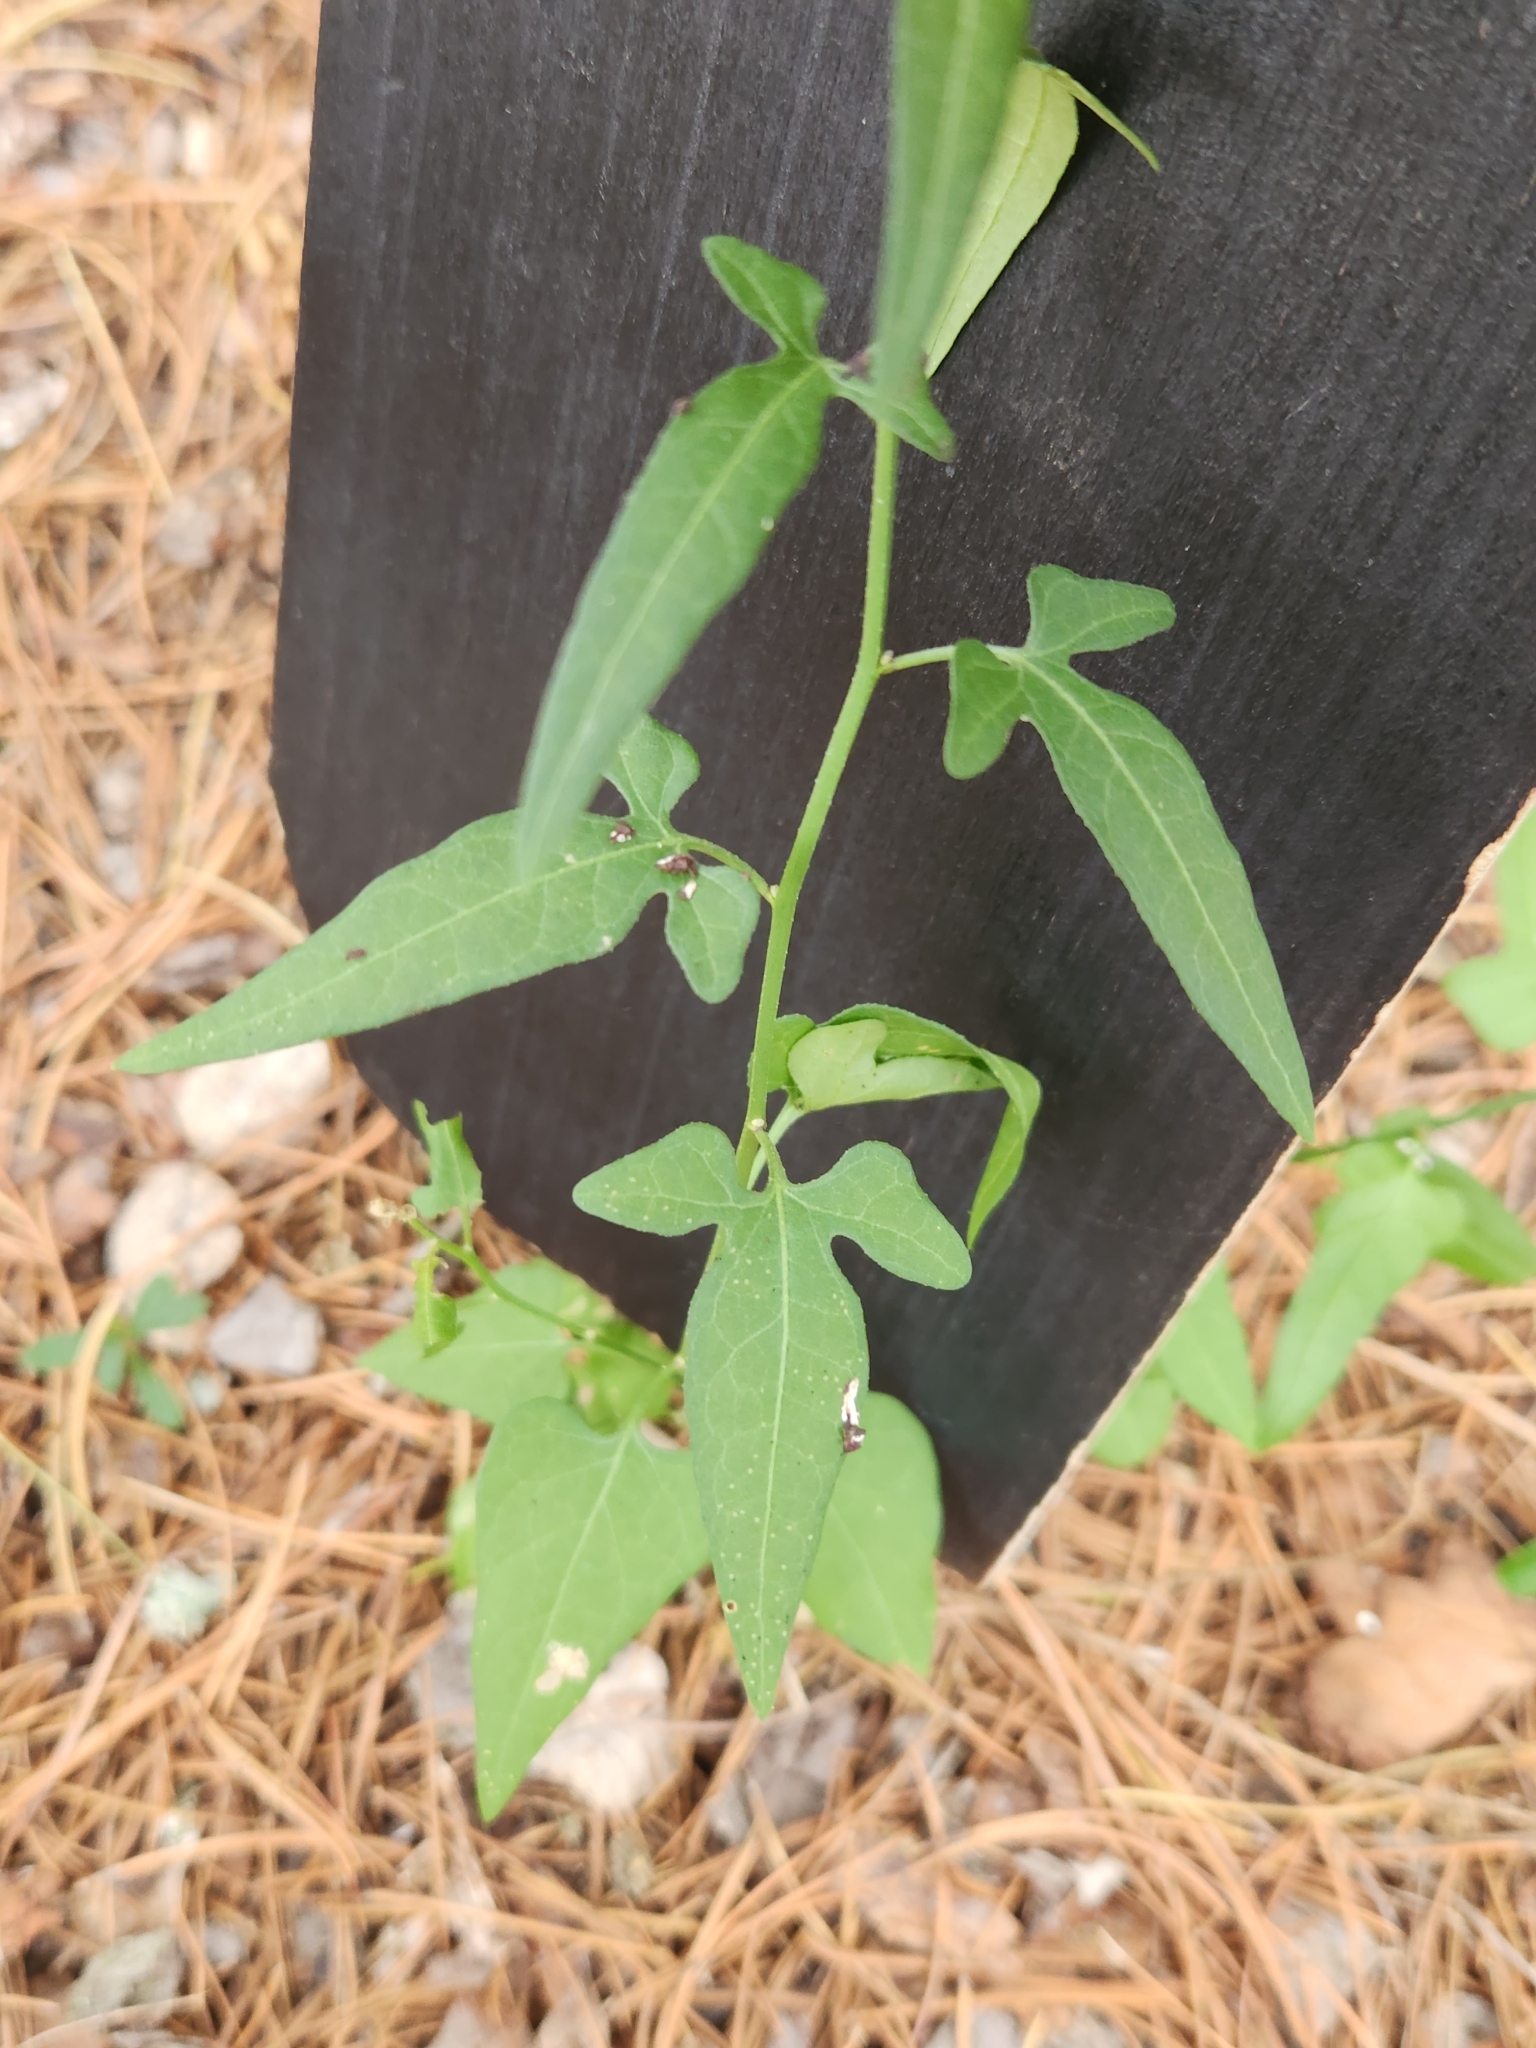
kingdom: Plantae
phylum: Tracheophyta
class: Magnoliopsida
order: Solanales
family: Solanaceae
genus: Solanum
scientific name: Solanum triquetrum
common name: Texas nightshade
